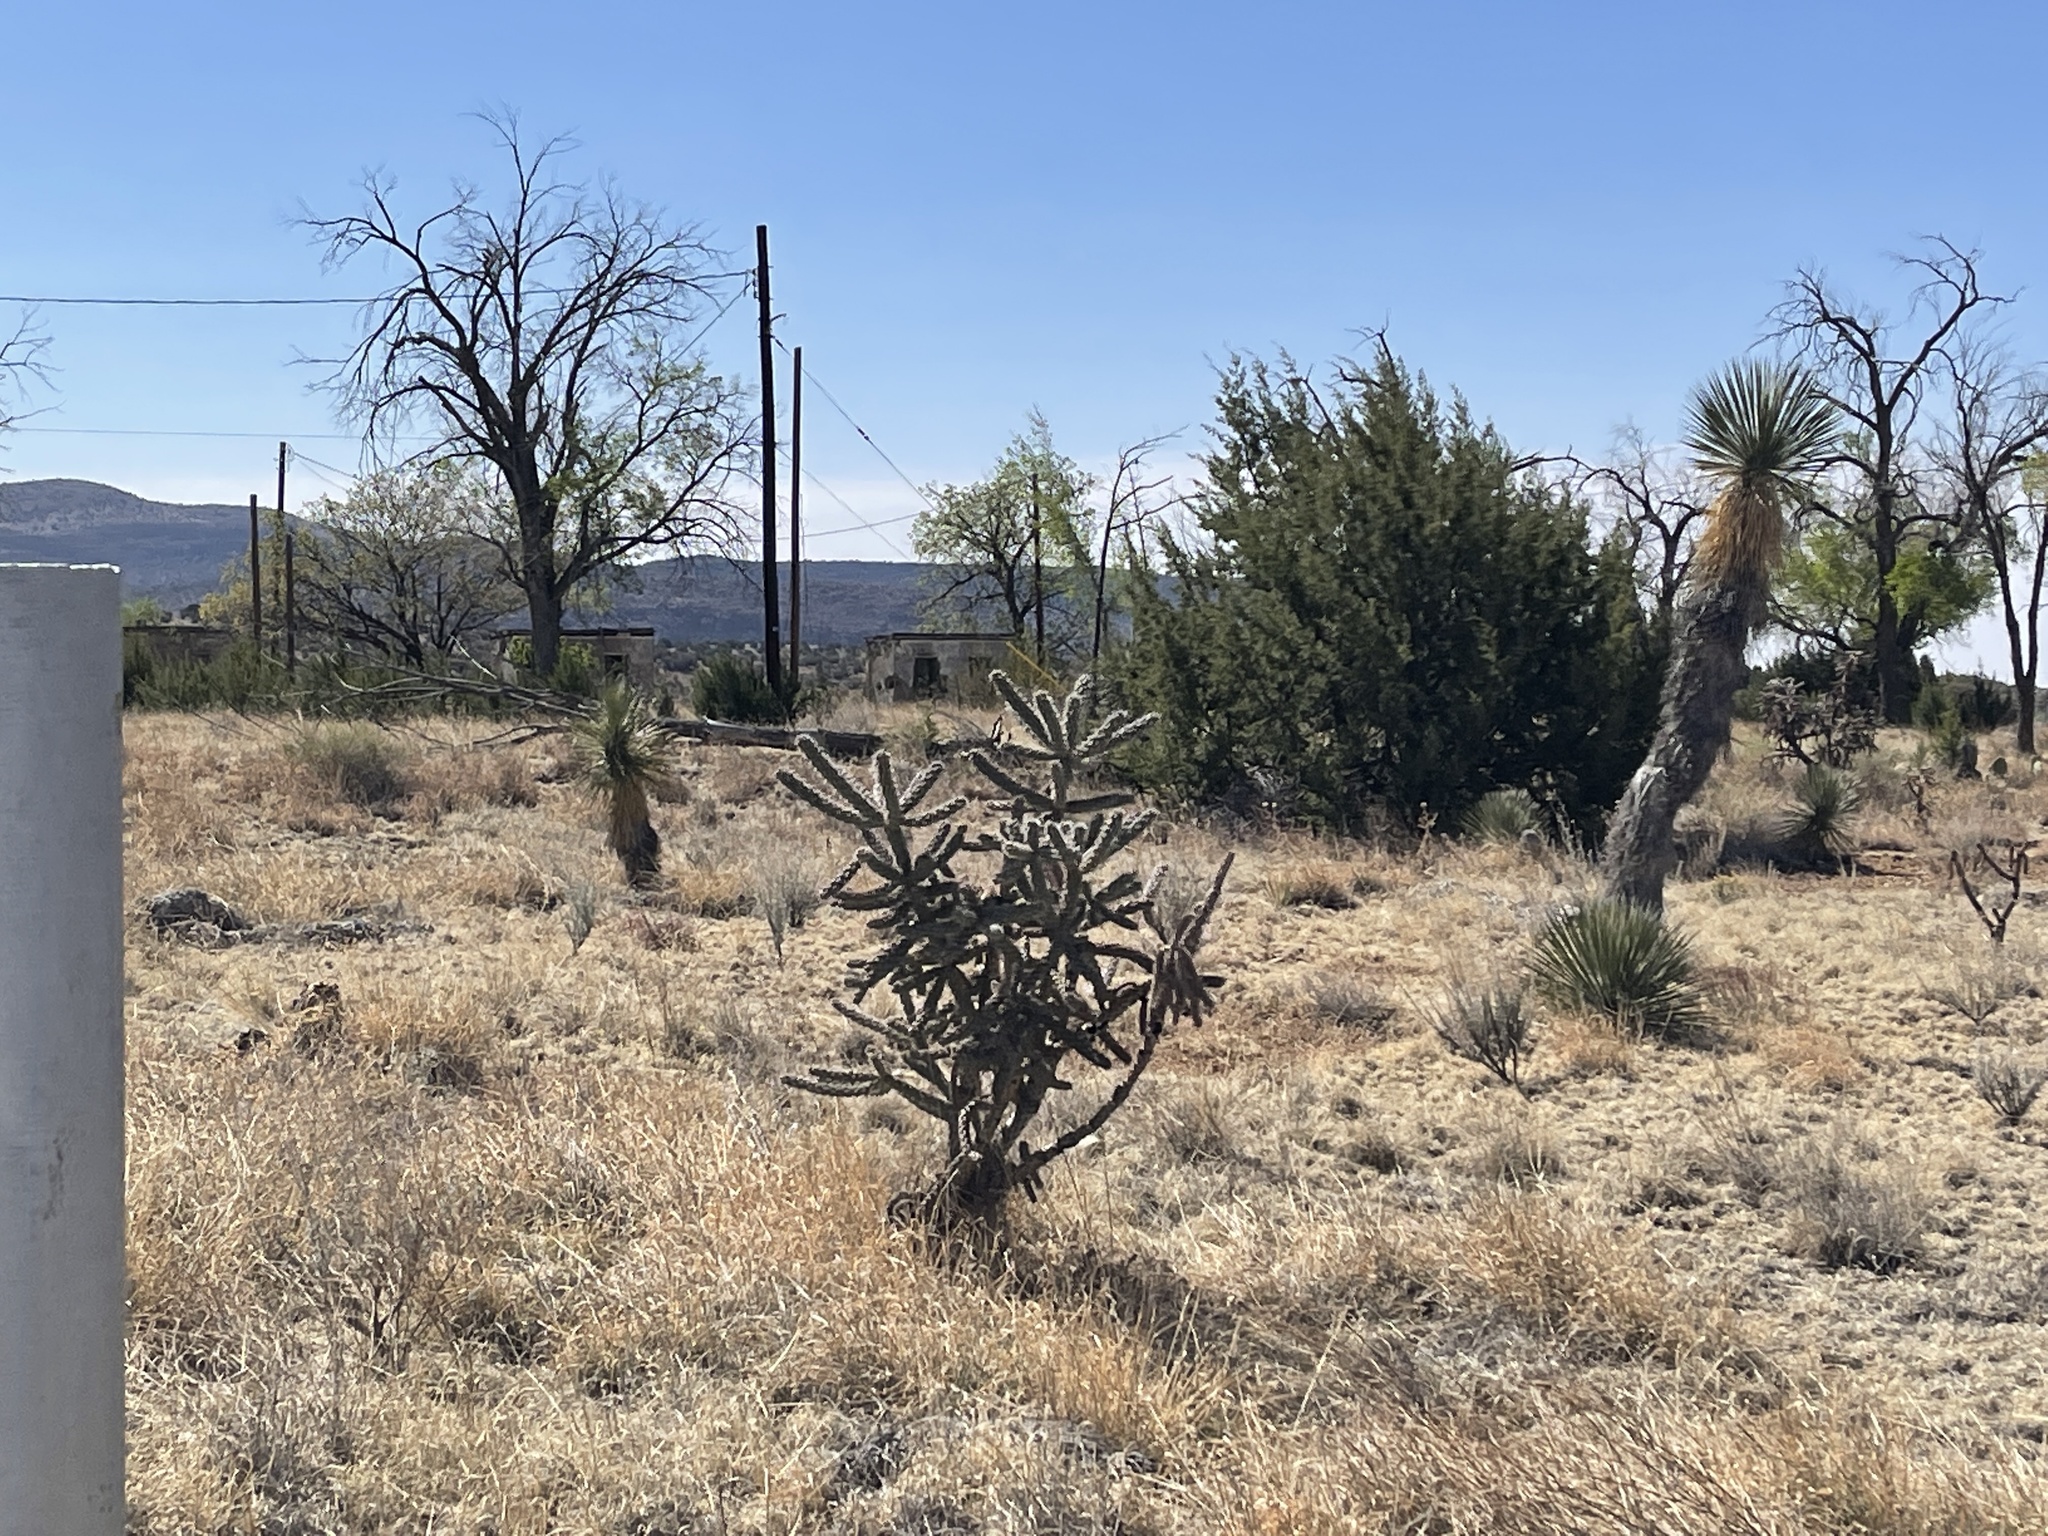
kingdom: Plantae
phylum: Tracheophyta
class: Magnoliopsida
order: Caryophyllales
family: Cactaceae
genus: Cylindropuntia
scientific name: Cylindropuntia imbricata
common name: Candelabrum cactus
